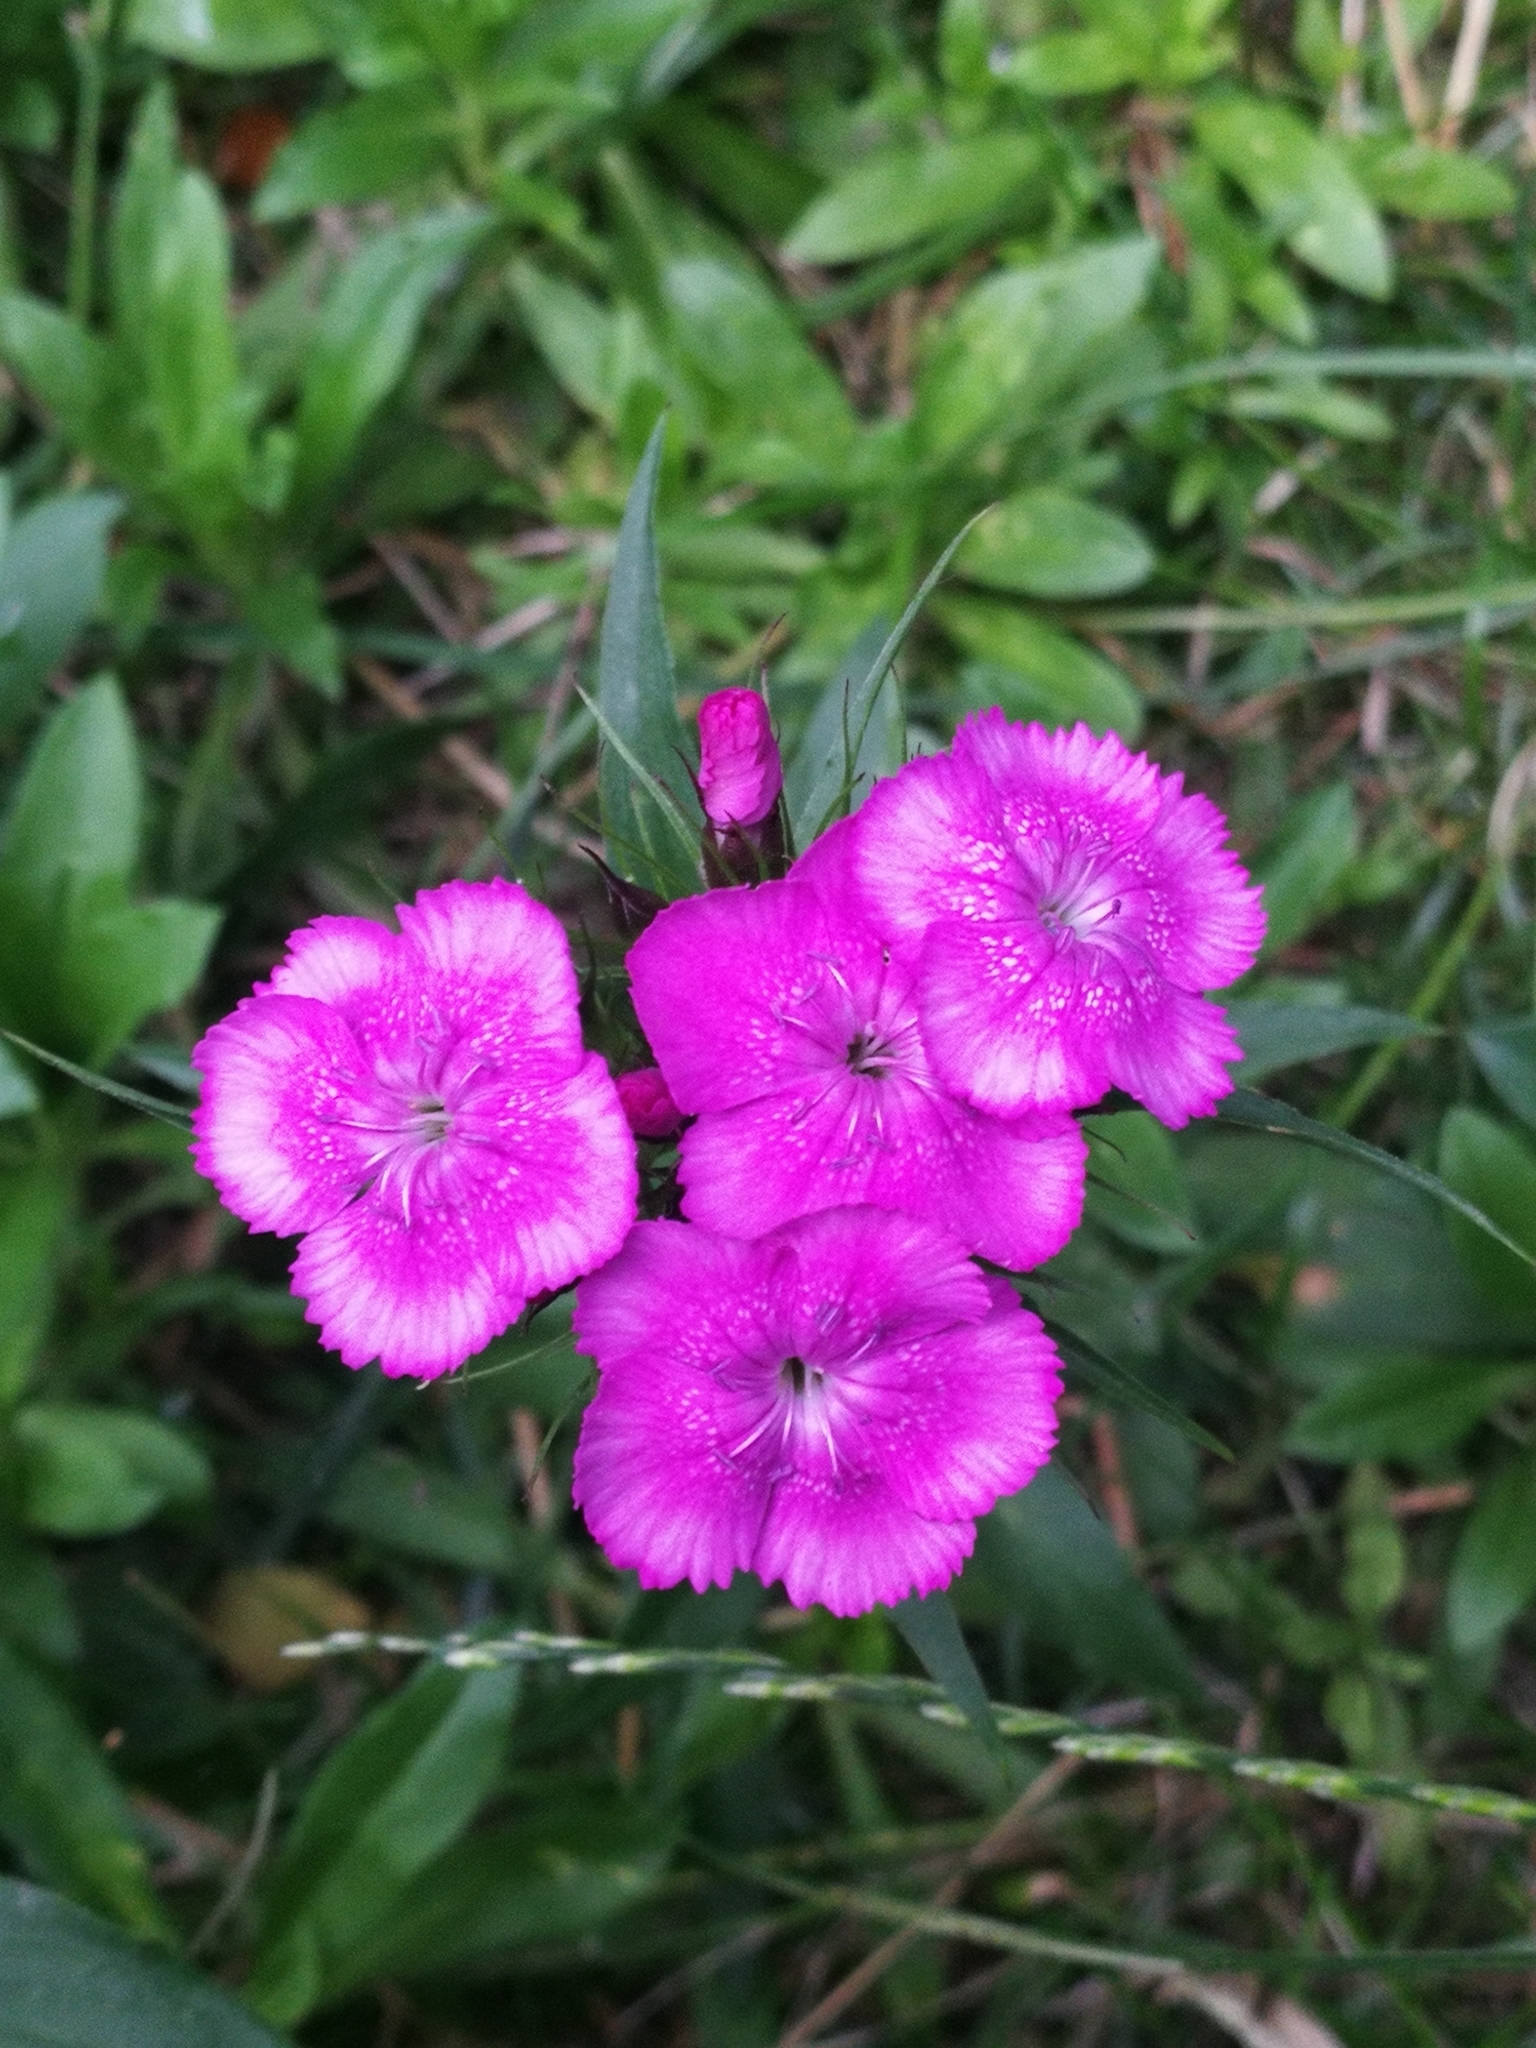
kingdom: Plantae
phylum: Tracheophyta
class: Magnoliopsida
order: Caryophyllales
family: Caryophyllaceae
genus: Dianthus
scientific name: Dianthus barbatus
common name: Sweet-william
